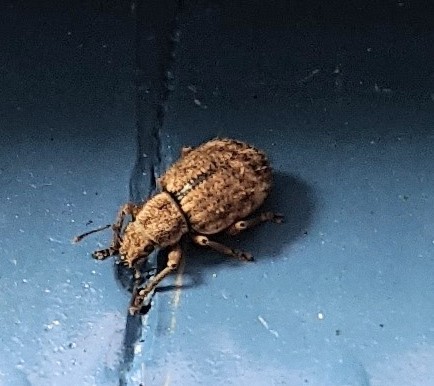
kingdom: Animalia
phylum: Arthropoda
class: Insecta
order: Coleoptera
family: Curculionidae
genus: Strophosoma
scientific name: Strophosoma melanogrammum
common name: Weevil
